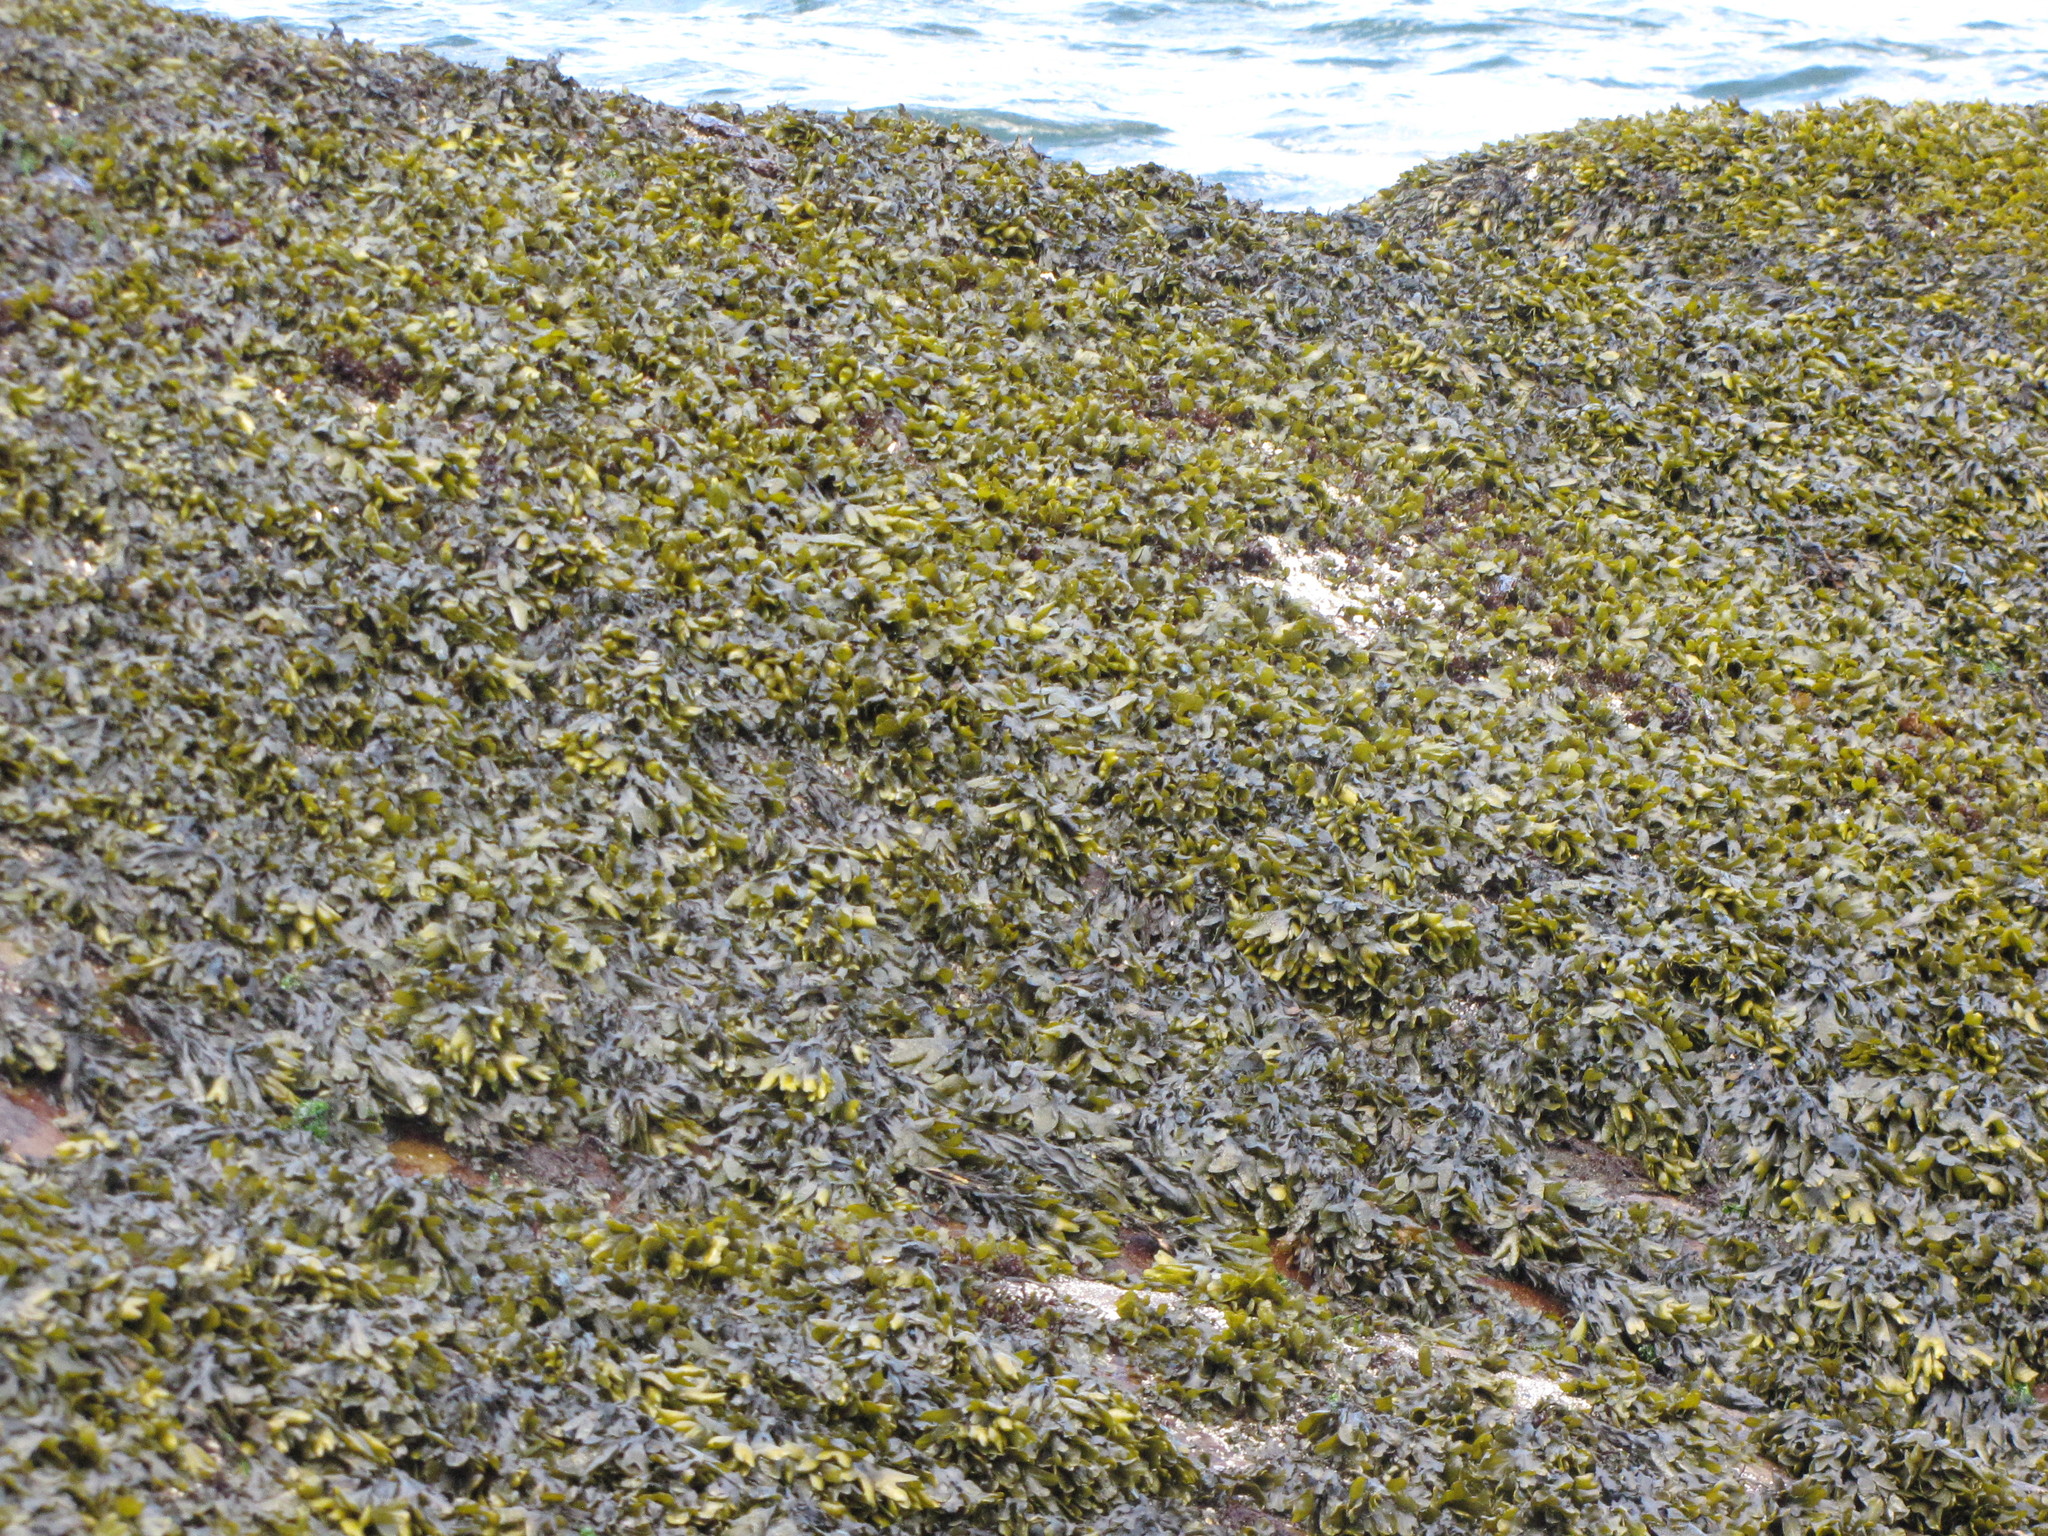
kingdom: Chromista
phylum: Ochrophyta
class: Phaeophyceae
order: Fucales
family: Fucaceae
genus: Fucus
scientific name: Fucus distichus
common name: Rockweed
